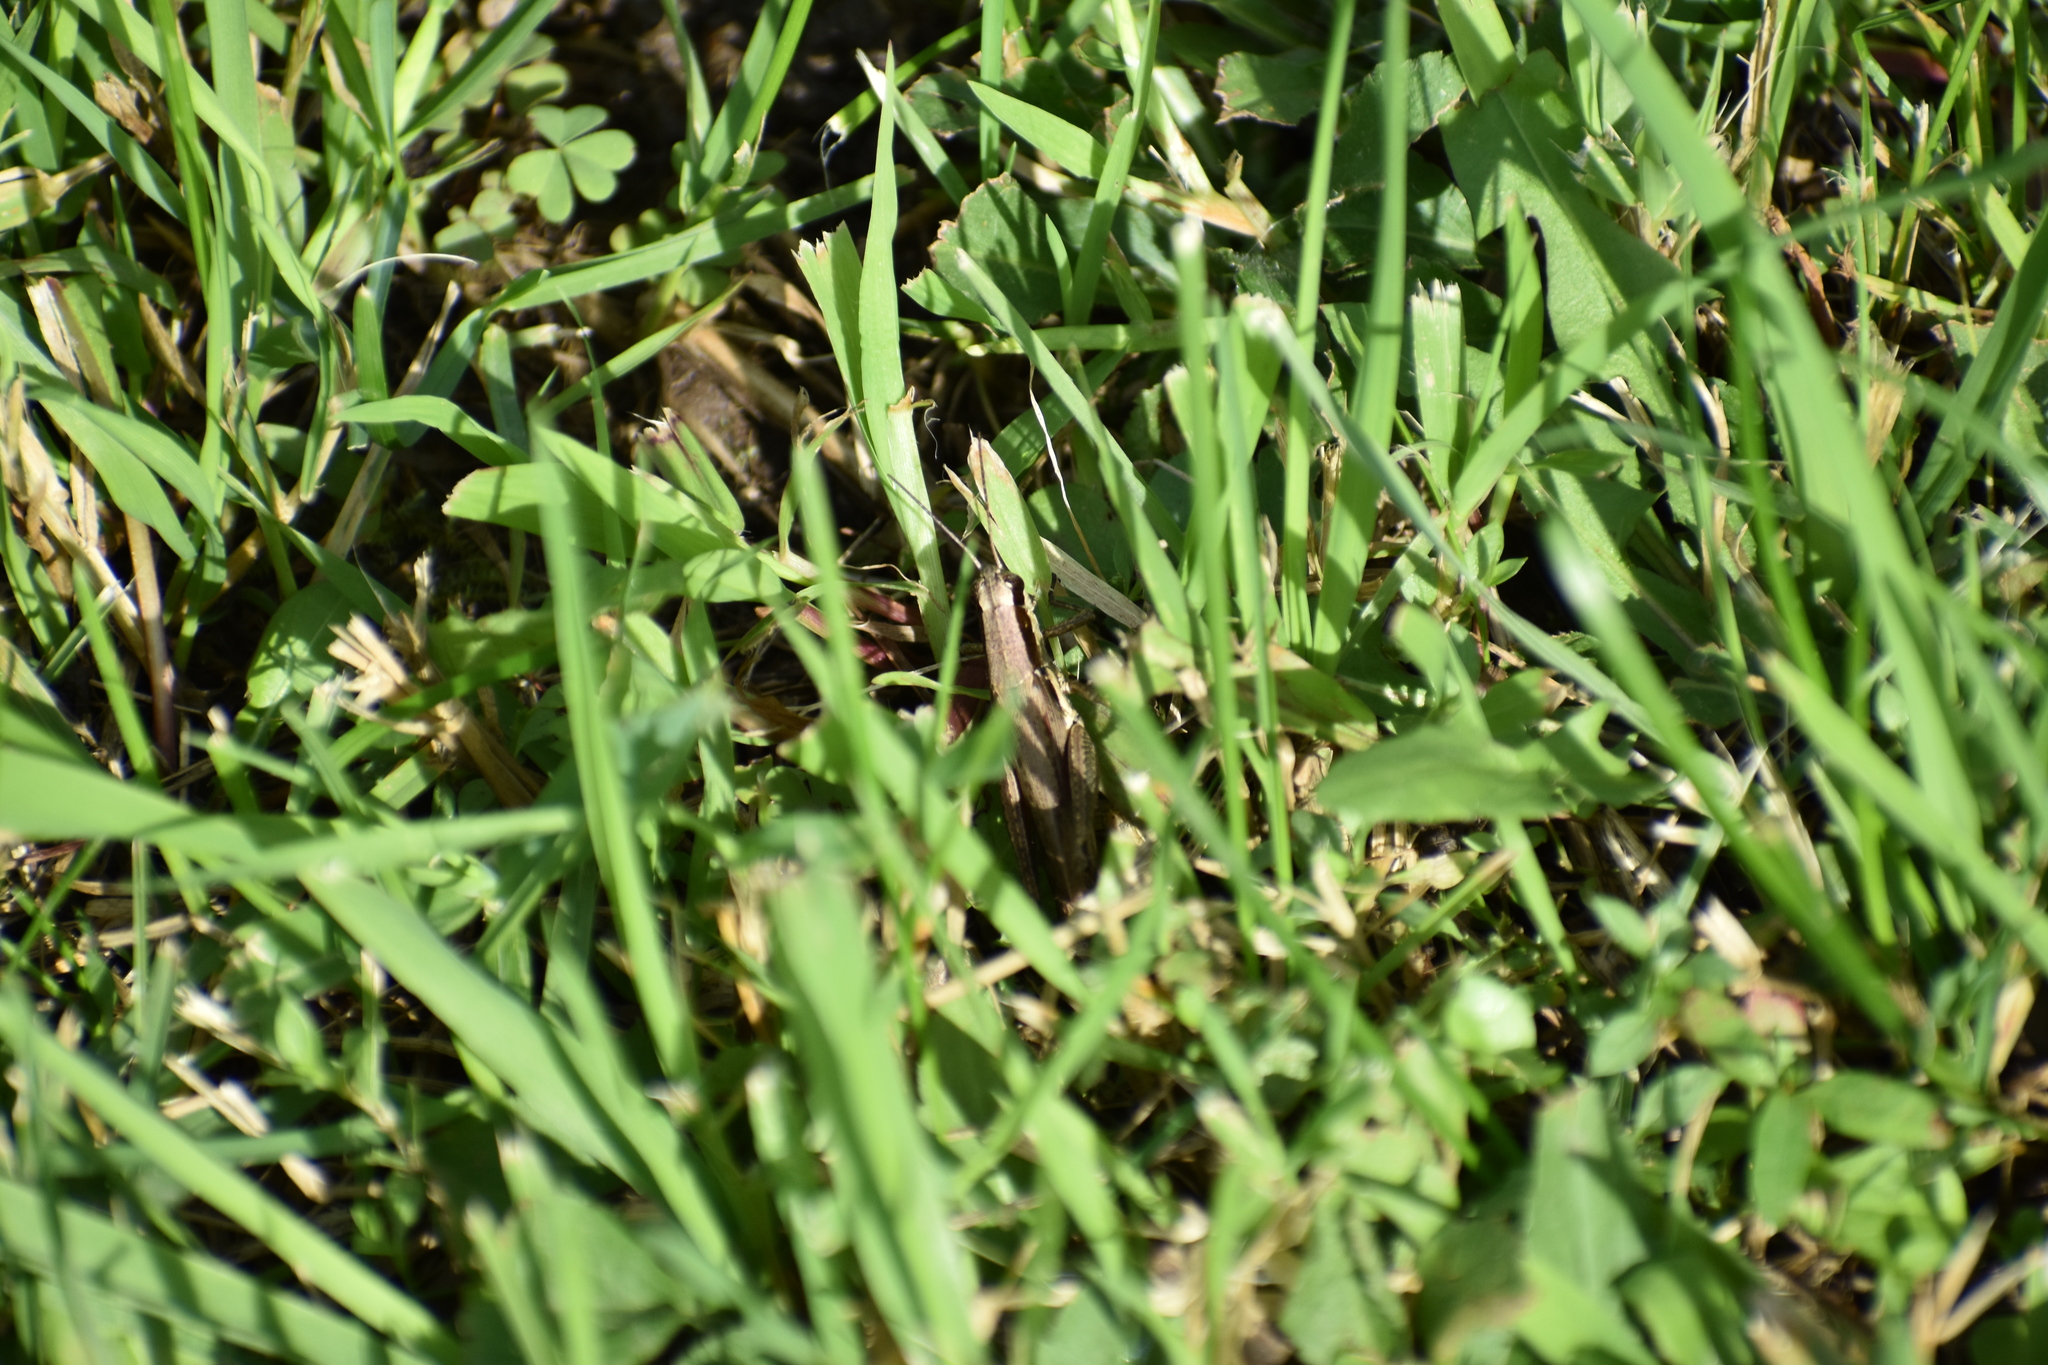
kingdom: Animalia
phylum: Arthropoda
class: Insecta
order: Orthoptera
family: Acrididae
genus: Paroxya
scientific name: Paroxya clavuligera
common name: Olive-green swamp grasshopper
